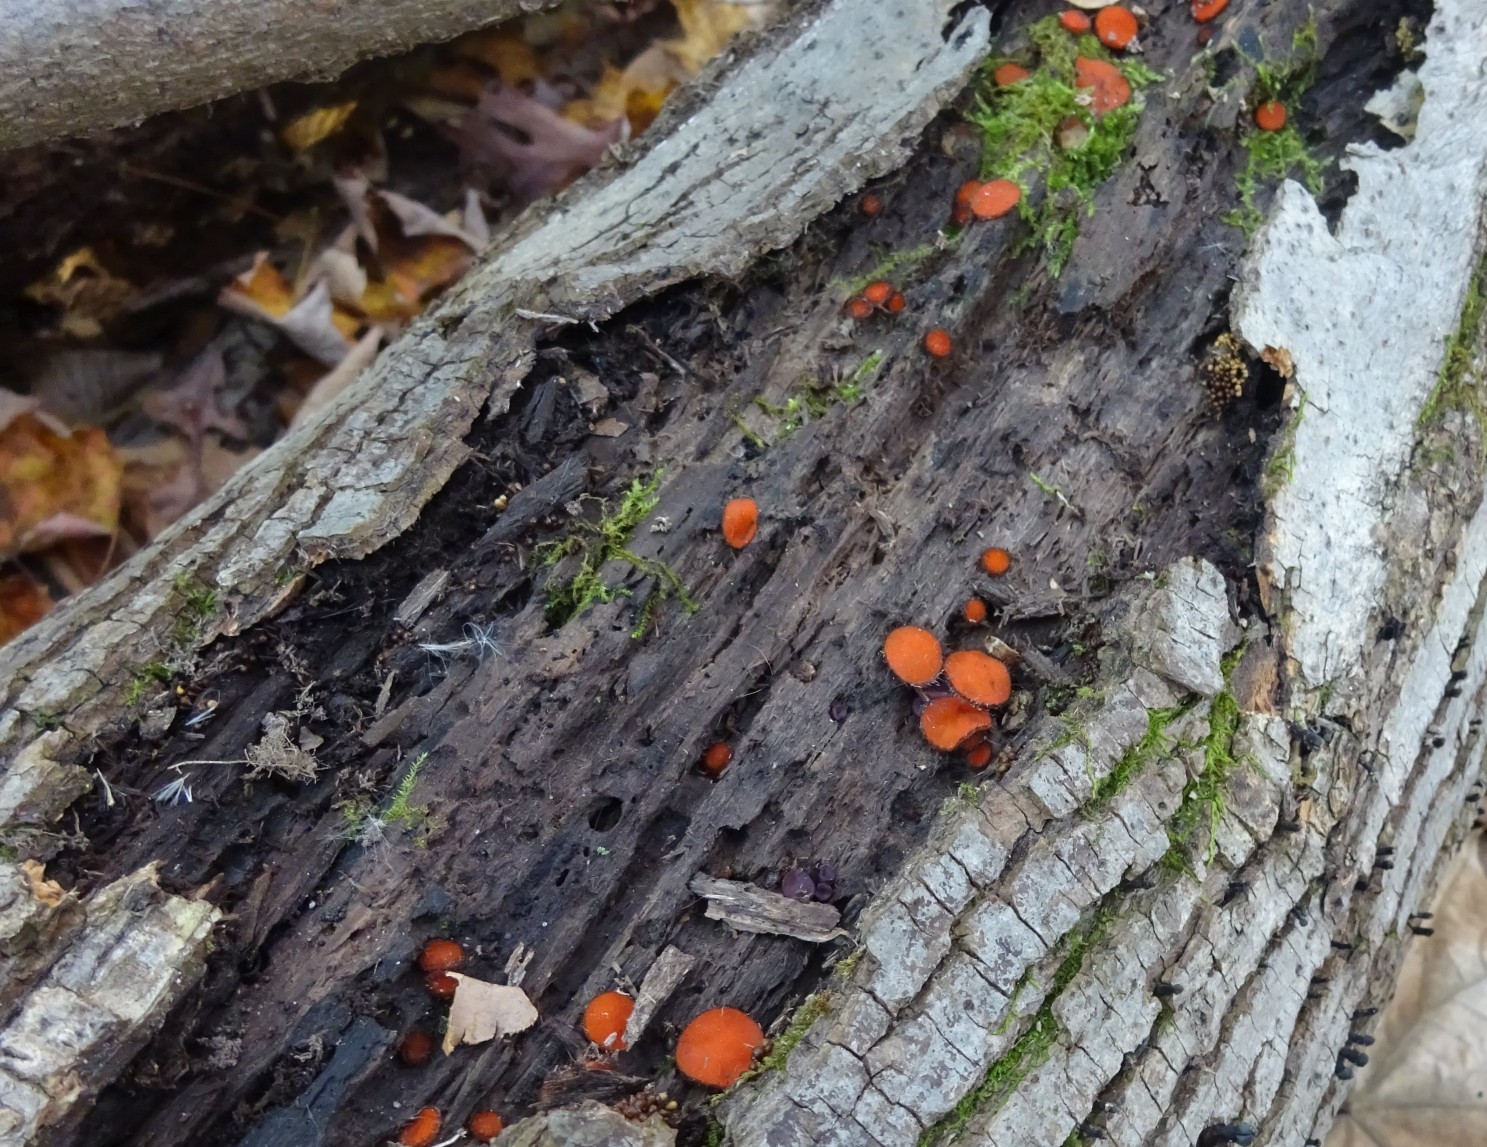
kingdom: Fungi
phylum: Ascomycota
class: Pezizomycetes
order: Pezizales
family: Pyronemataceae
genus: Scutellinia
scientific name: Scutellinia
